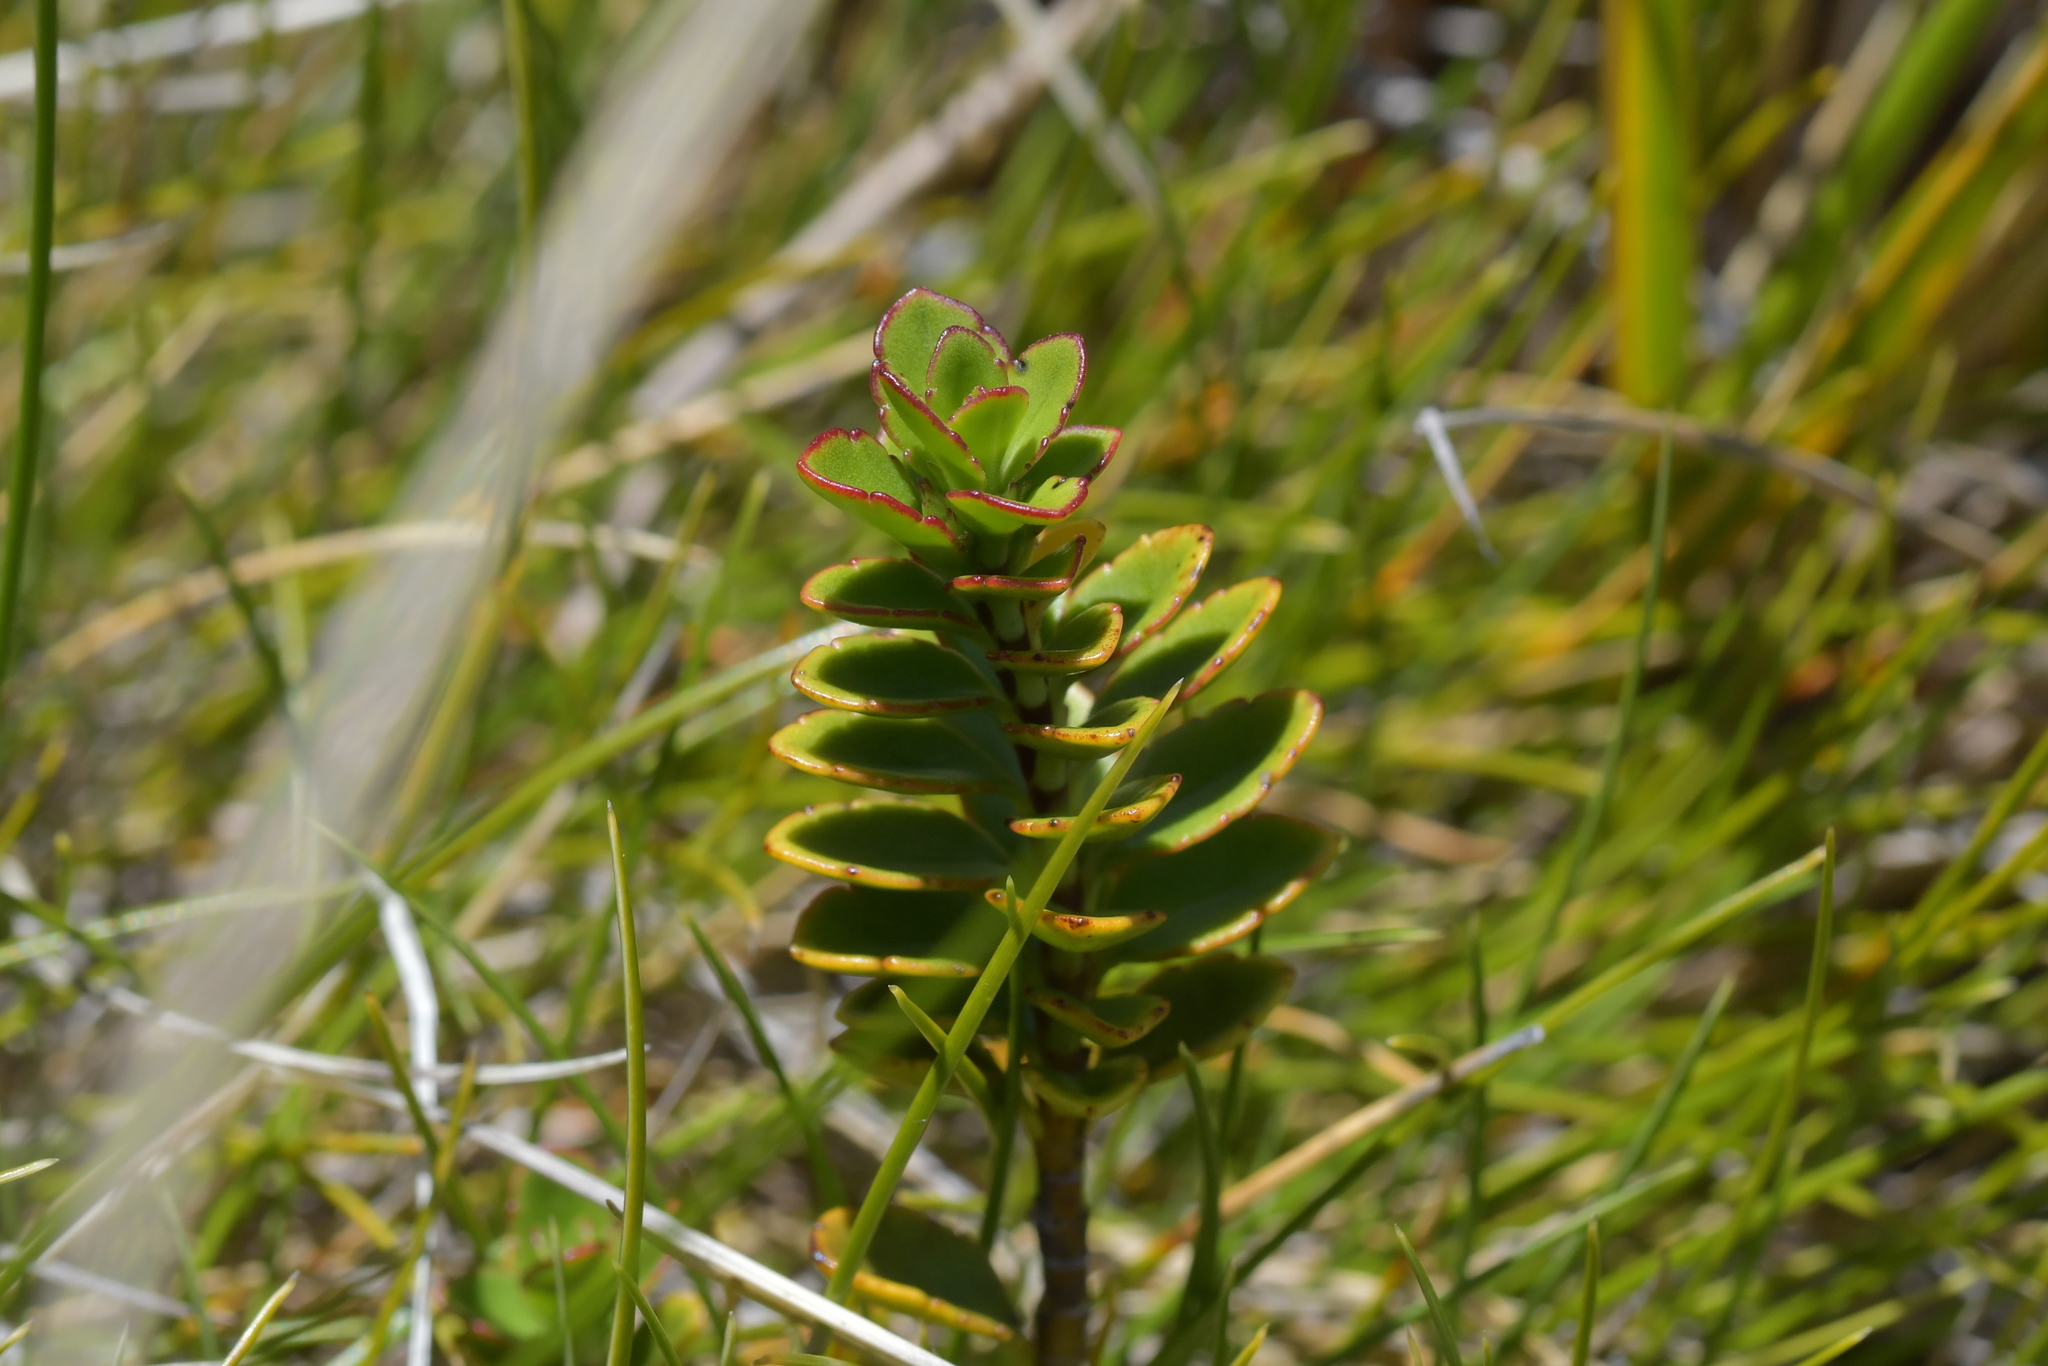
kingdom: Plantae
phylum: Tracheophyta
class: Magnoliopsida
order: Lamiales
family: Plantaginaceae
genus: Veronica
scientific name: Veronica macrantha
